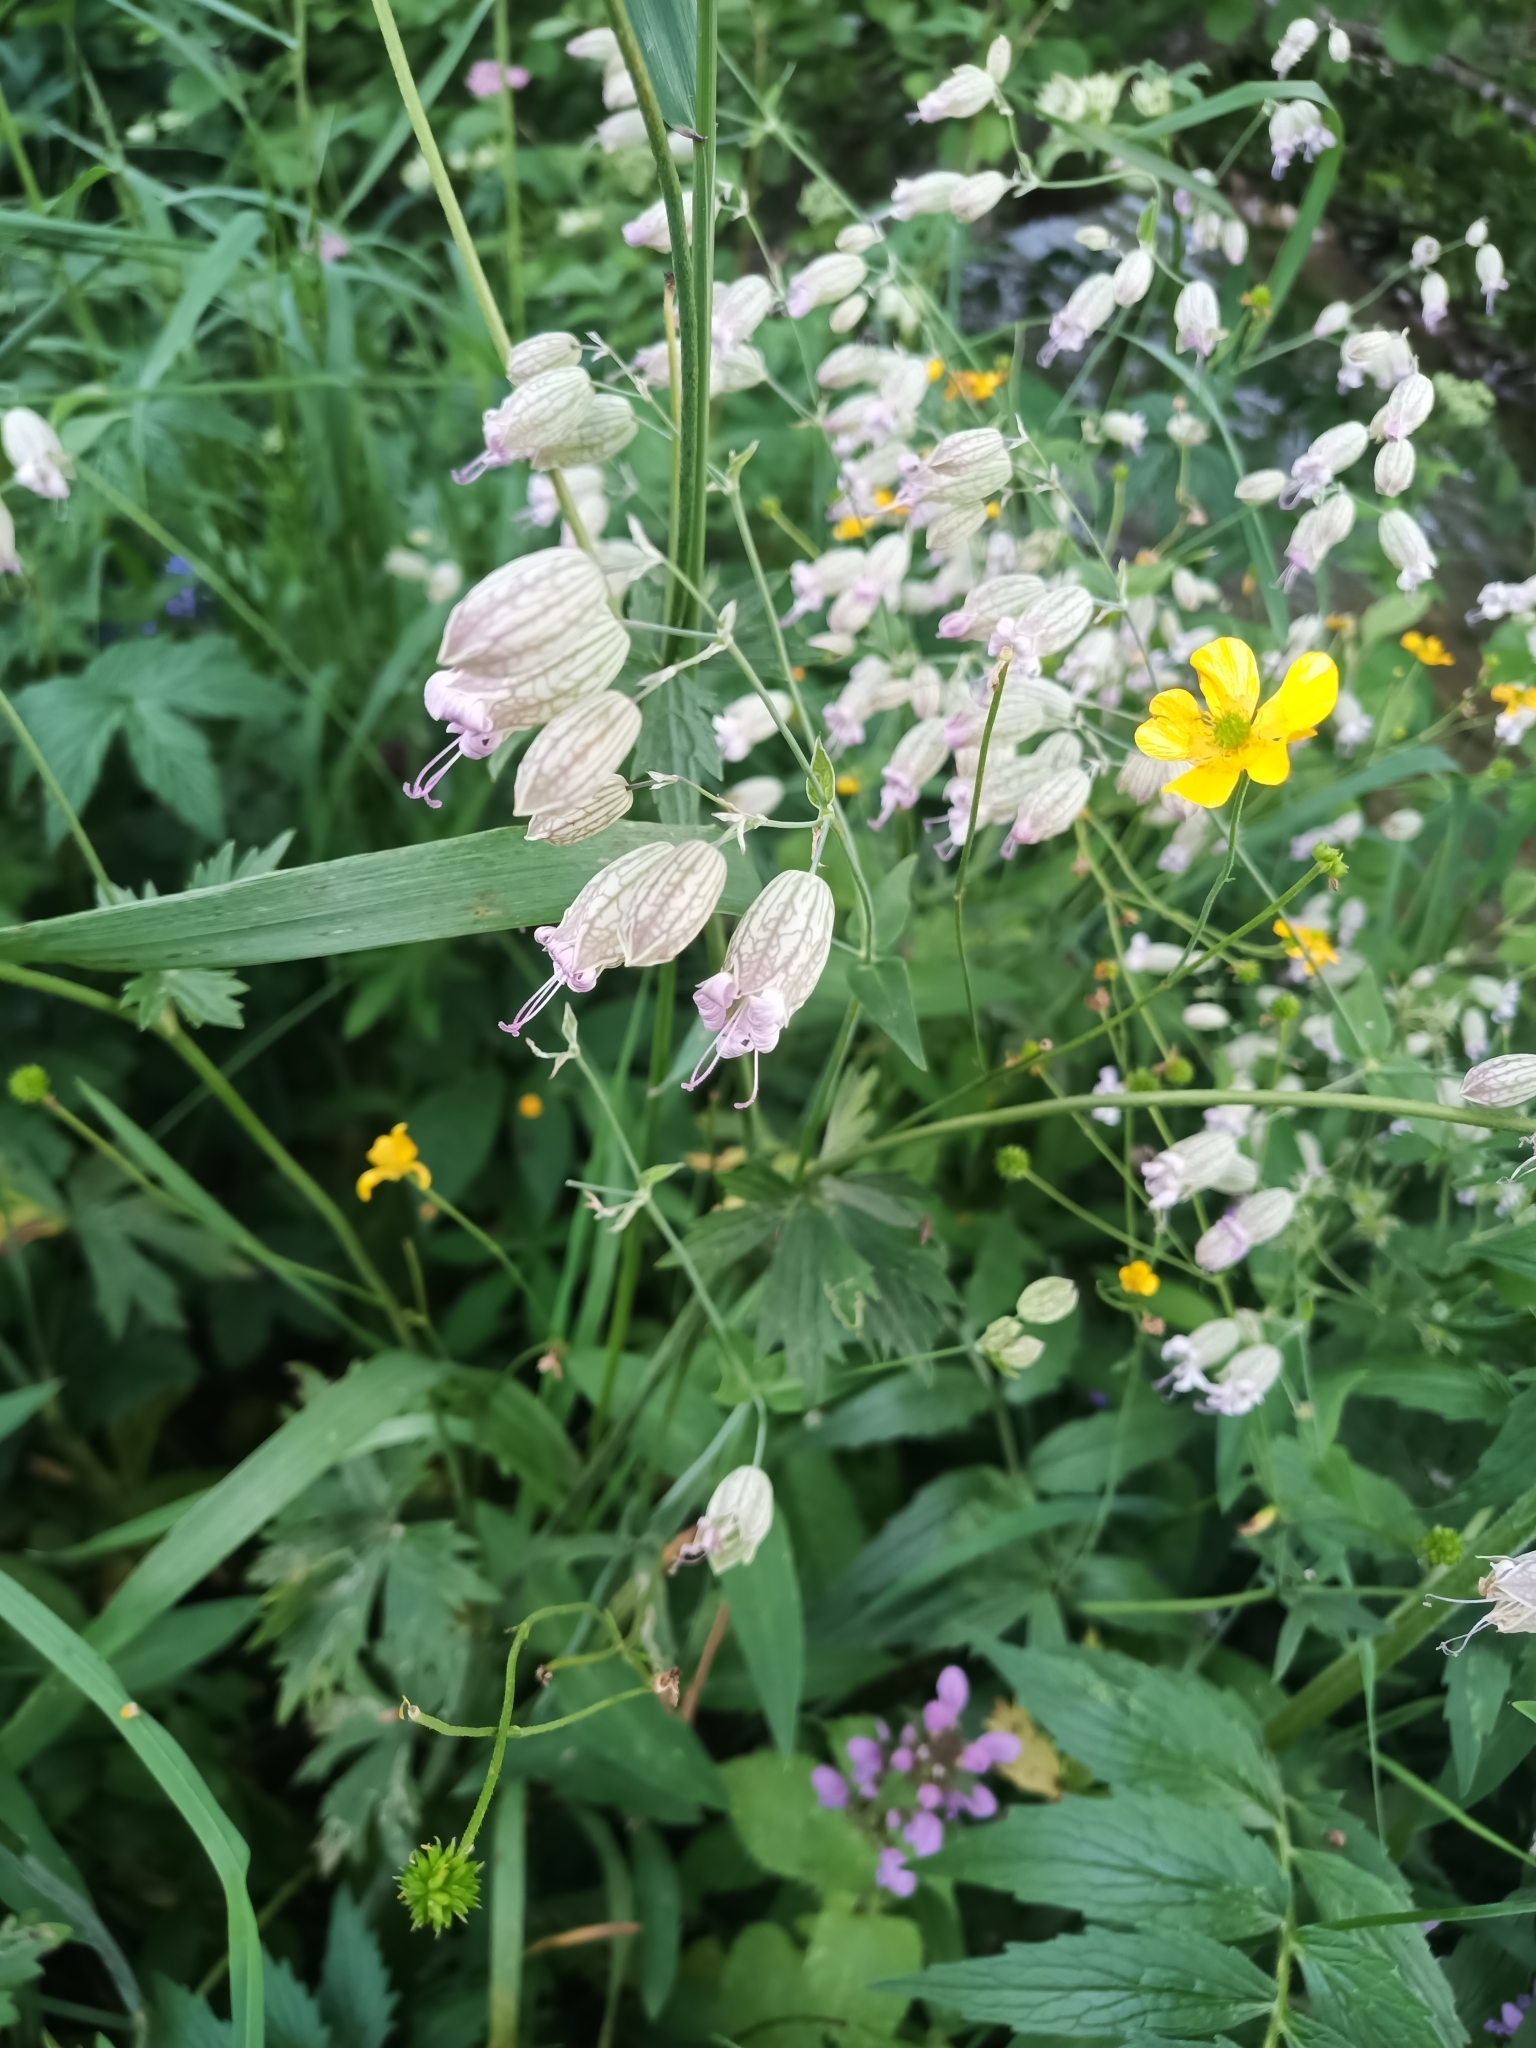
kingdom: Plantae
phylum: Tracheophyta
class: Magnoliopsida
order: Caryophyllales
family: Caryophyllaceae
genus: Silene
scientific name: Silene vulgaris
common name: Bladder campion
